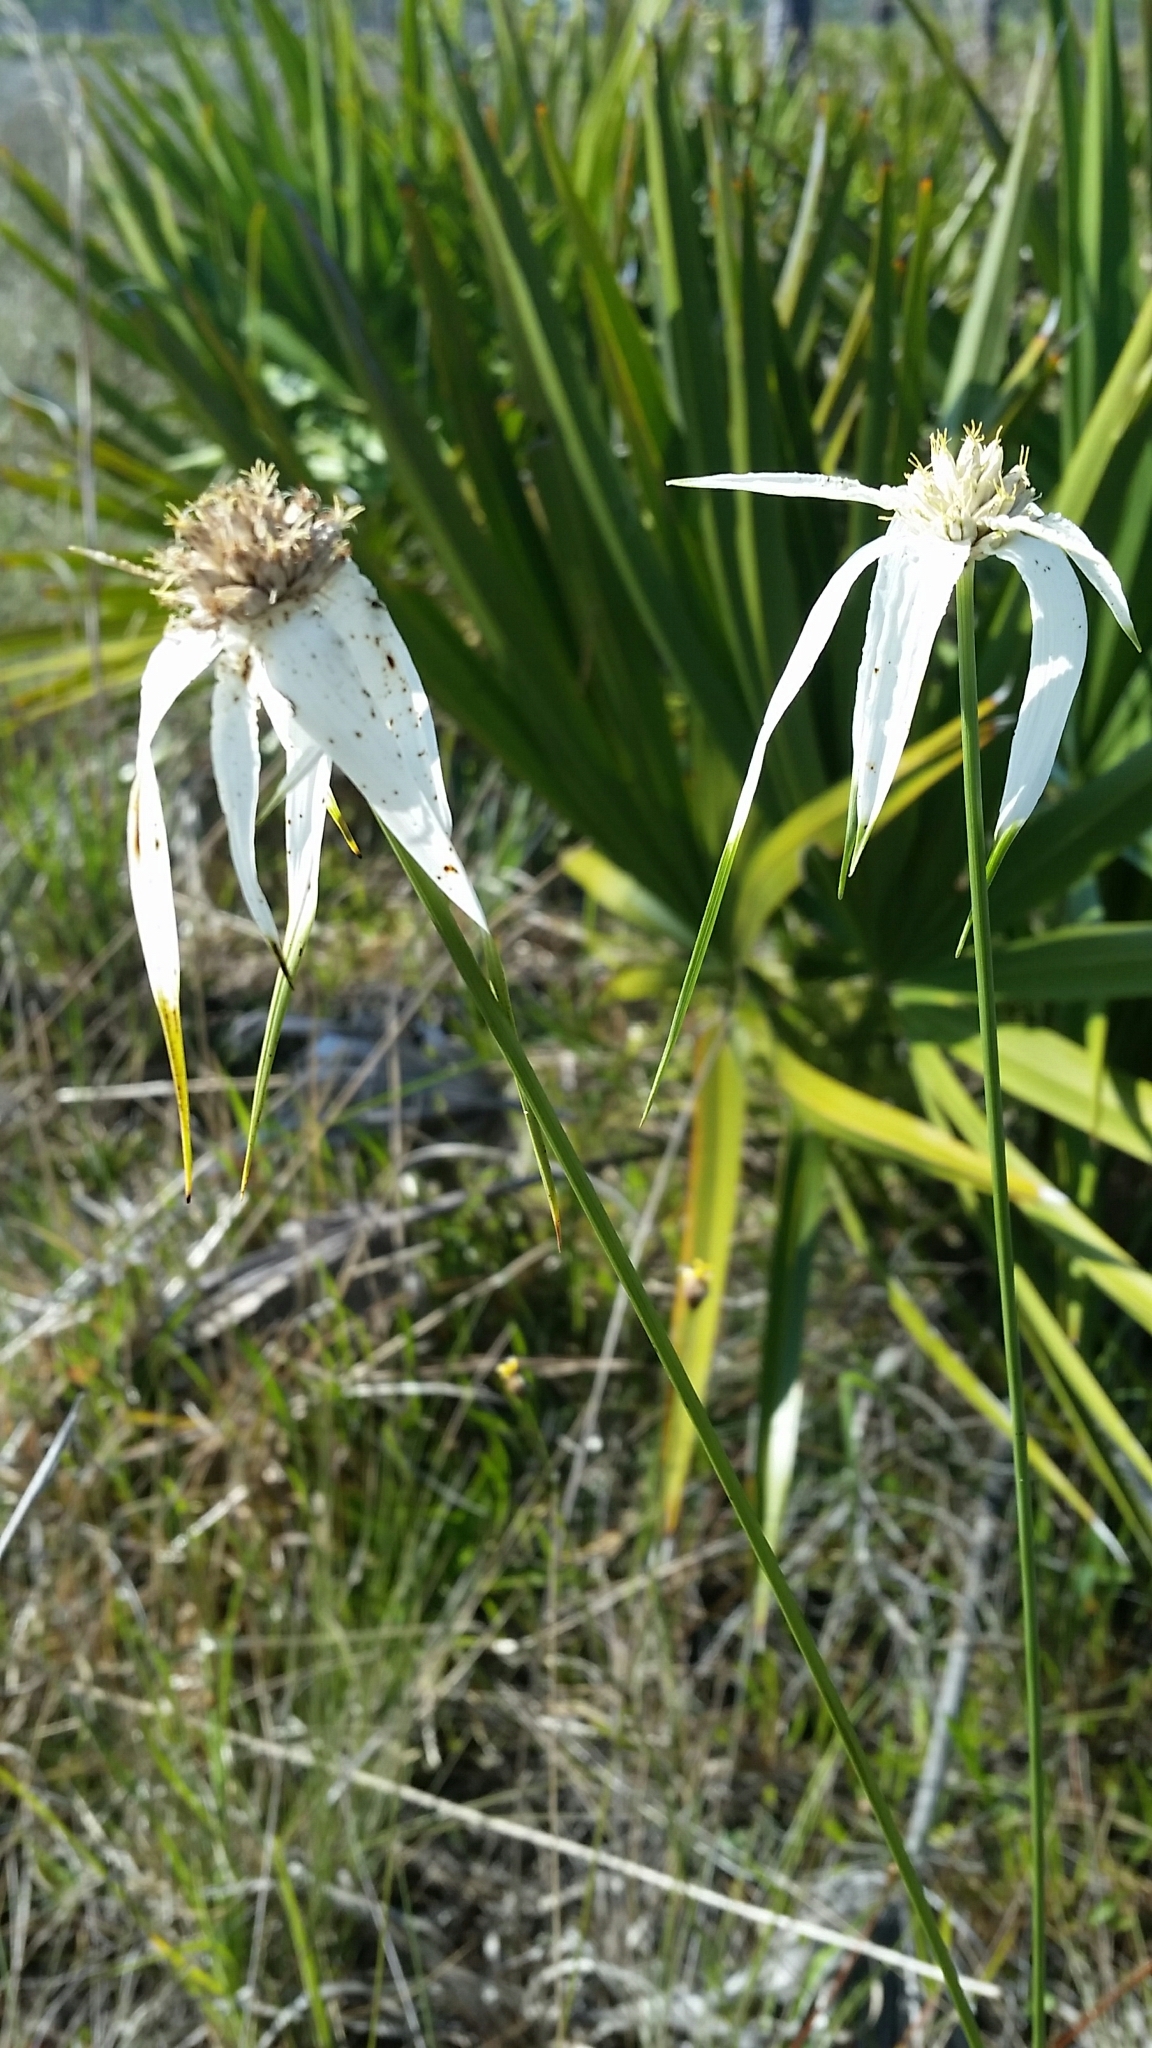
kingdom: Plantae
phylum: Tracheophyta
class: Liliopsida
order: Poales
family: Cyperaceae
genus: Rhynchospora
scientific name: Rhynchospora latifolia
